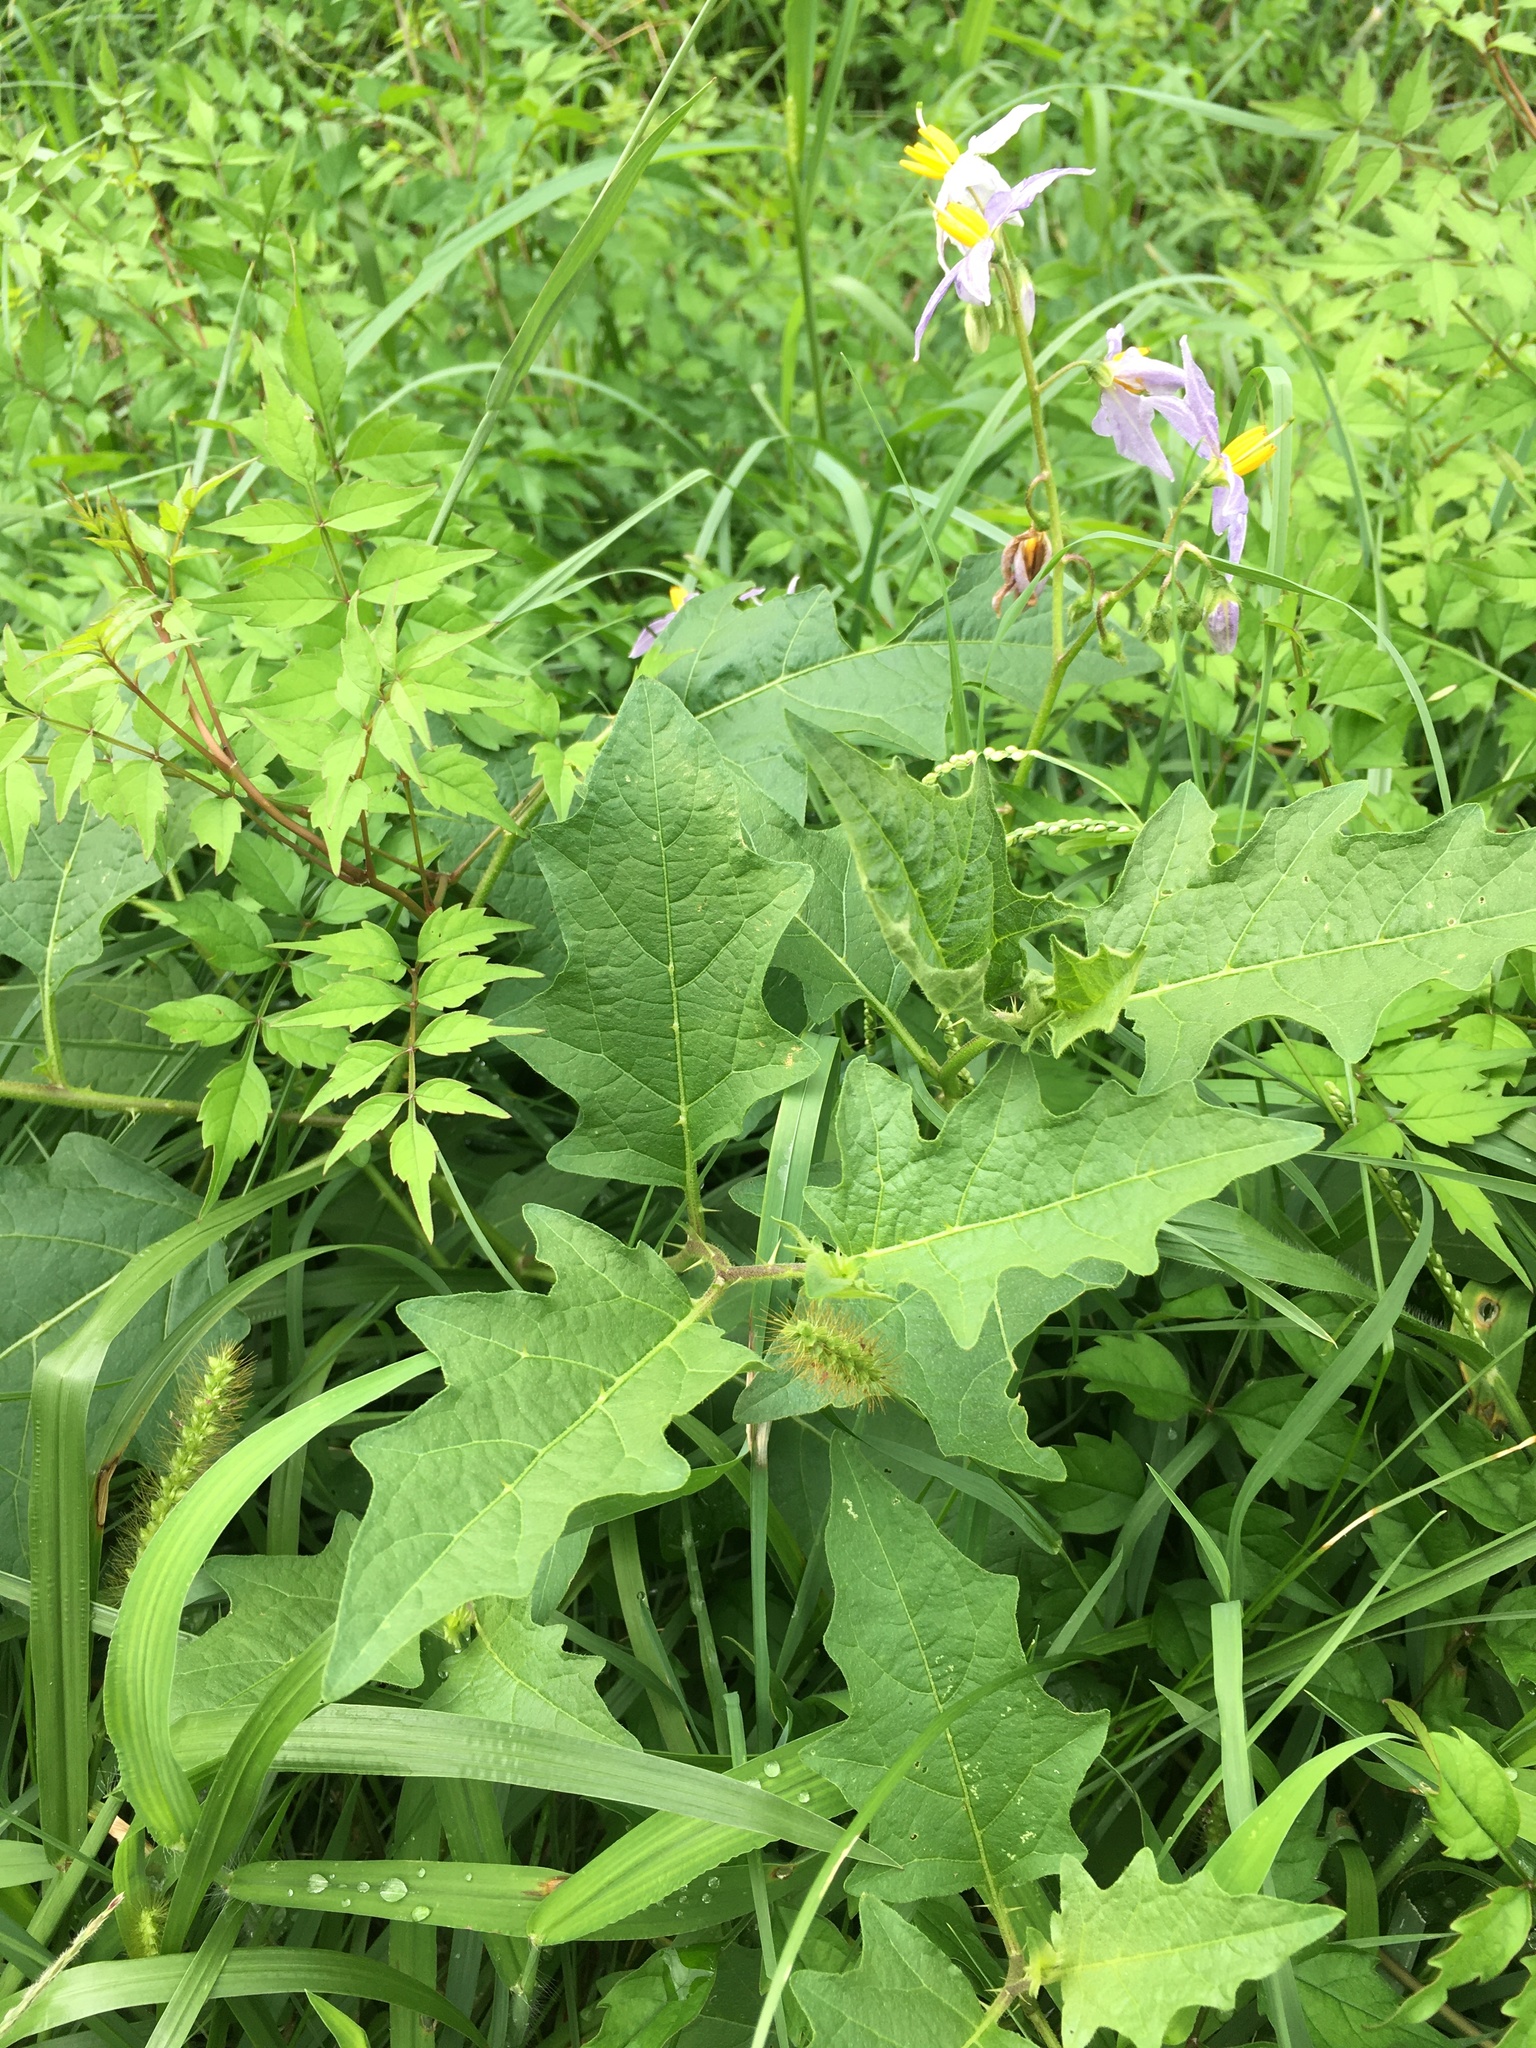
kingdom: Plantae
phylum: Tracheophyta
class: Magnoliopsida
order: Solanales
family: Solanaceae
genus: Solanum
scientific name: Solanum carolinense
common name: Horse-nettle
